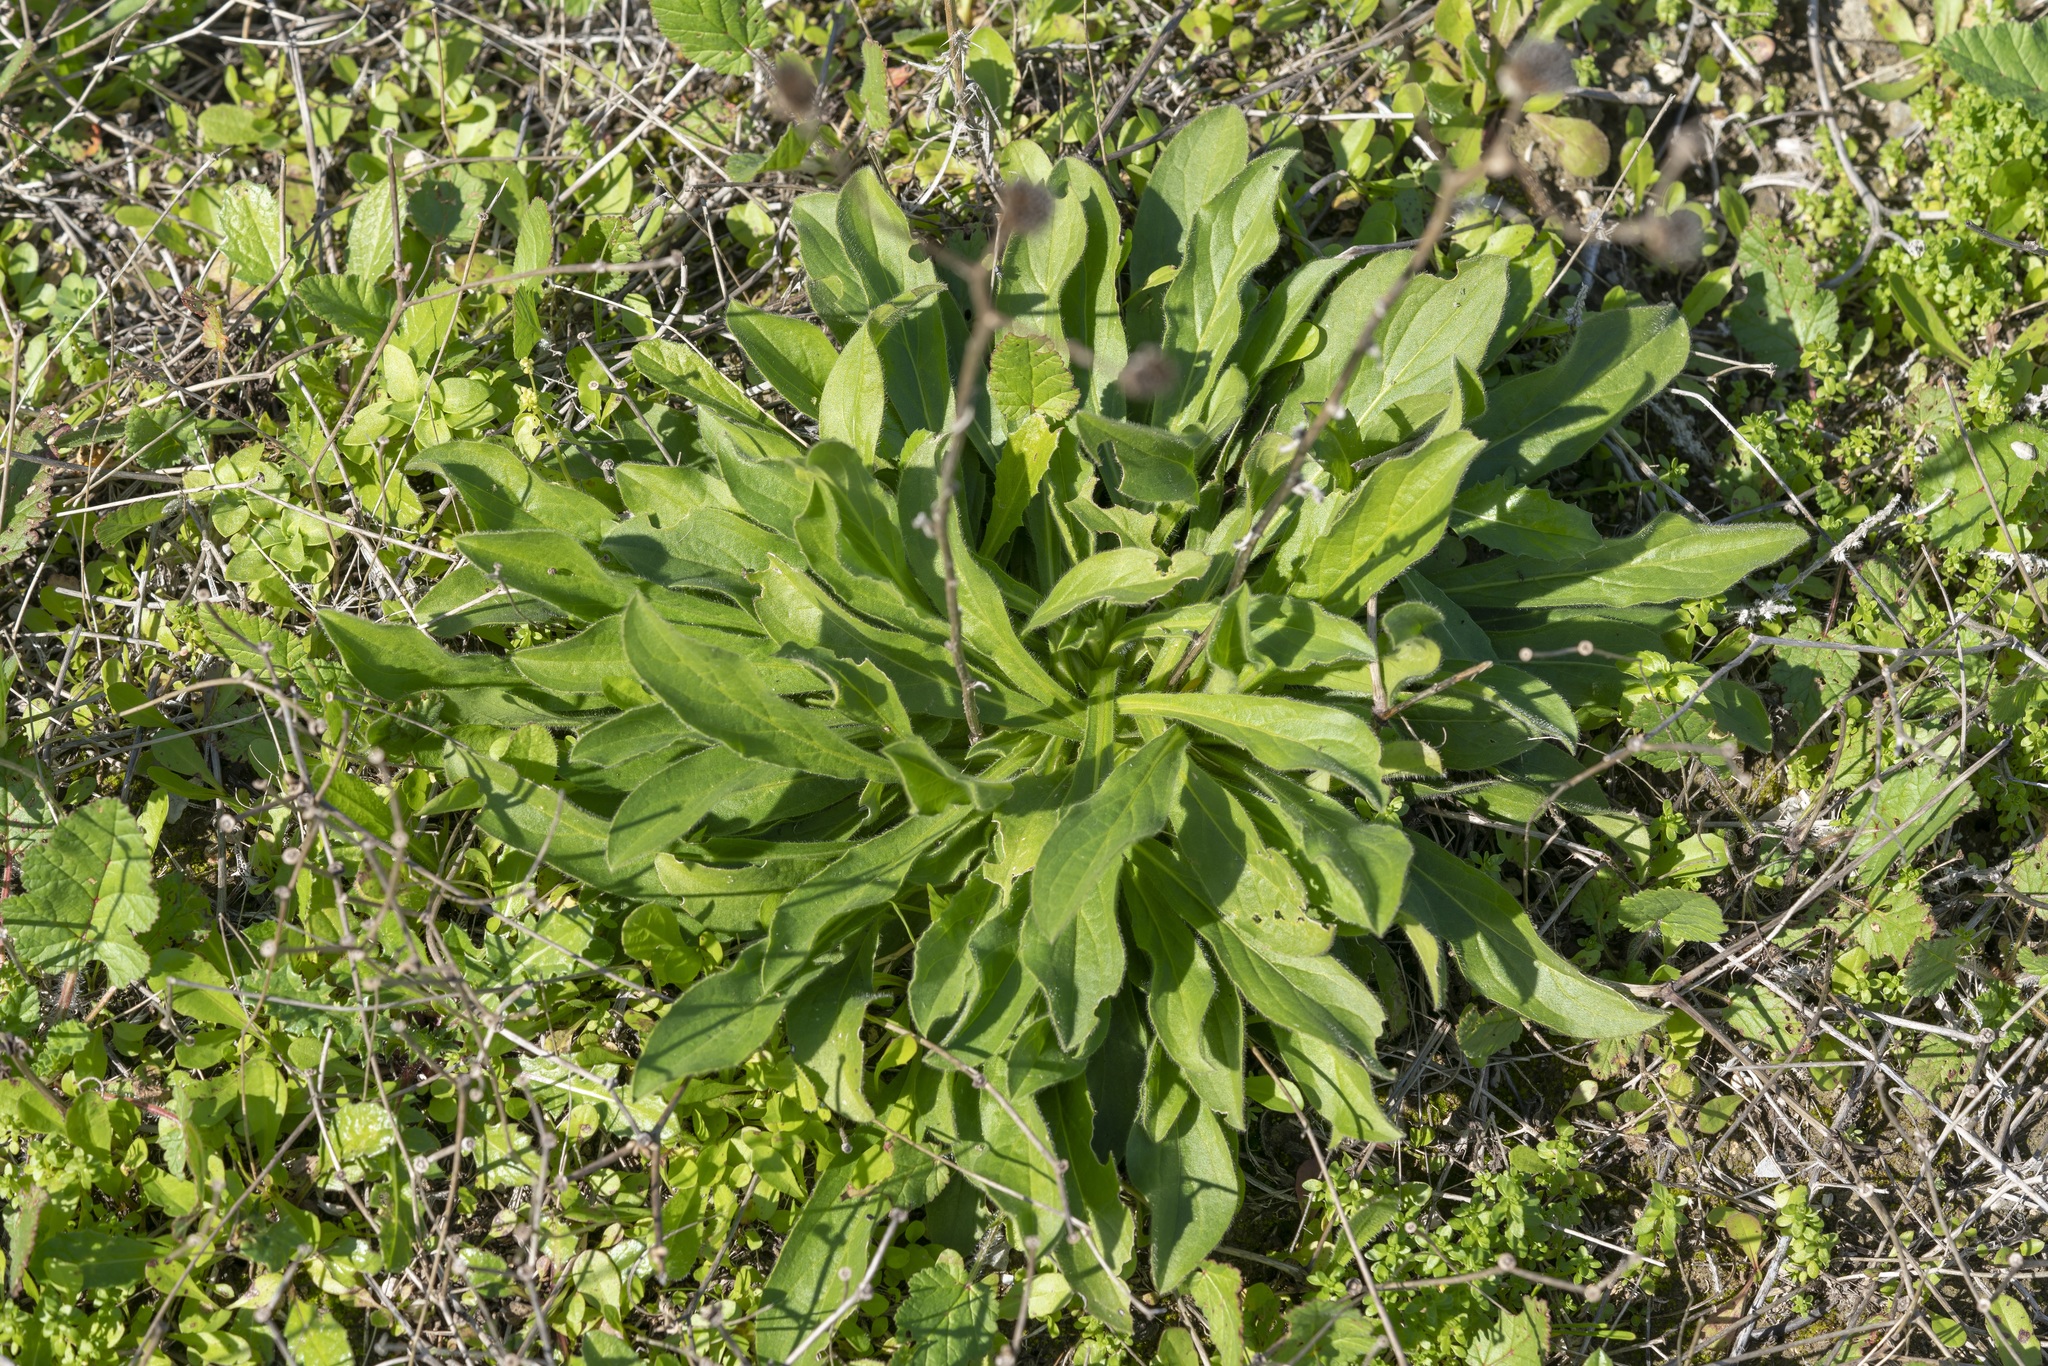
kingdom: Plantae
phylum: Tracheophyta
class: Magnoliopsida
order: Asterales
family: Asteraceae
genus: Pallenis
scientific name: Pallenis spinosa
